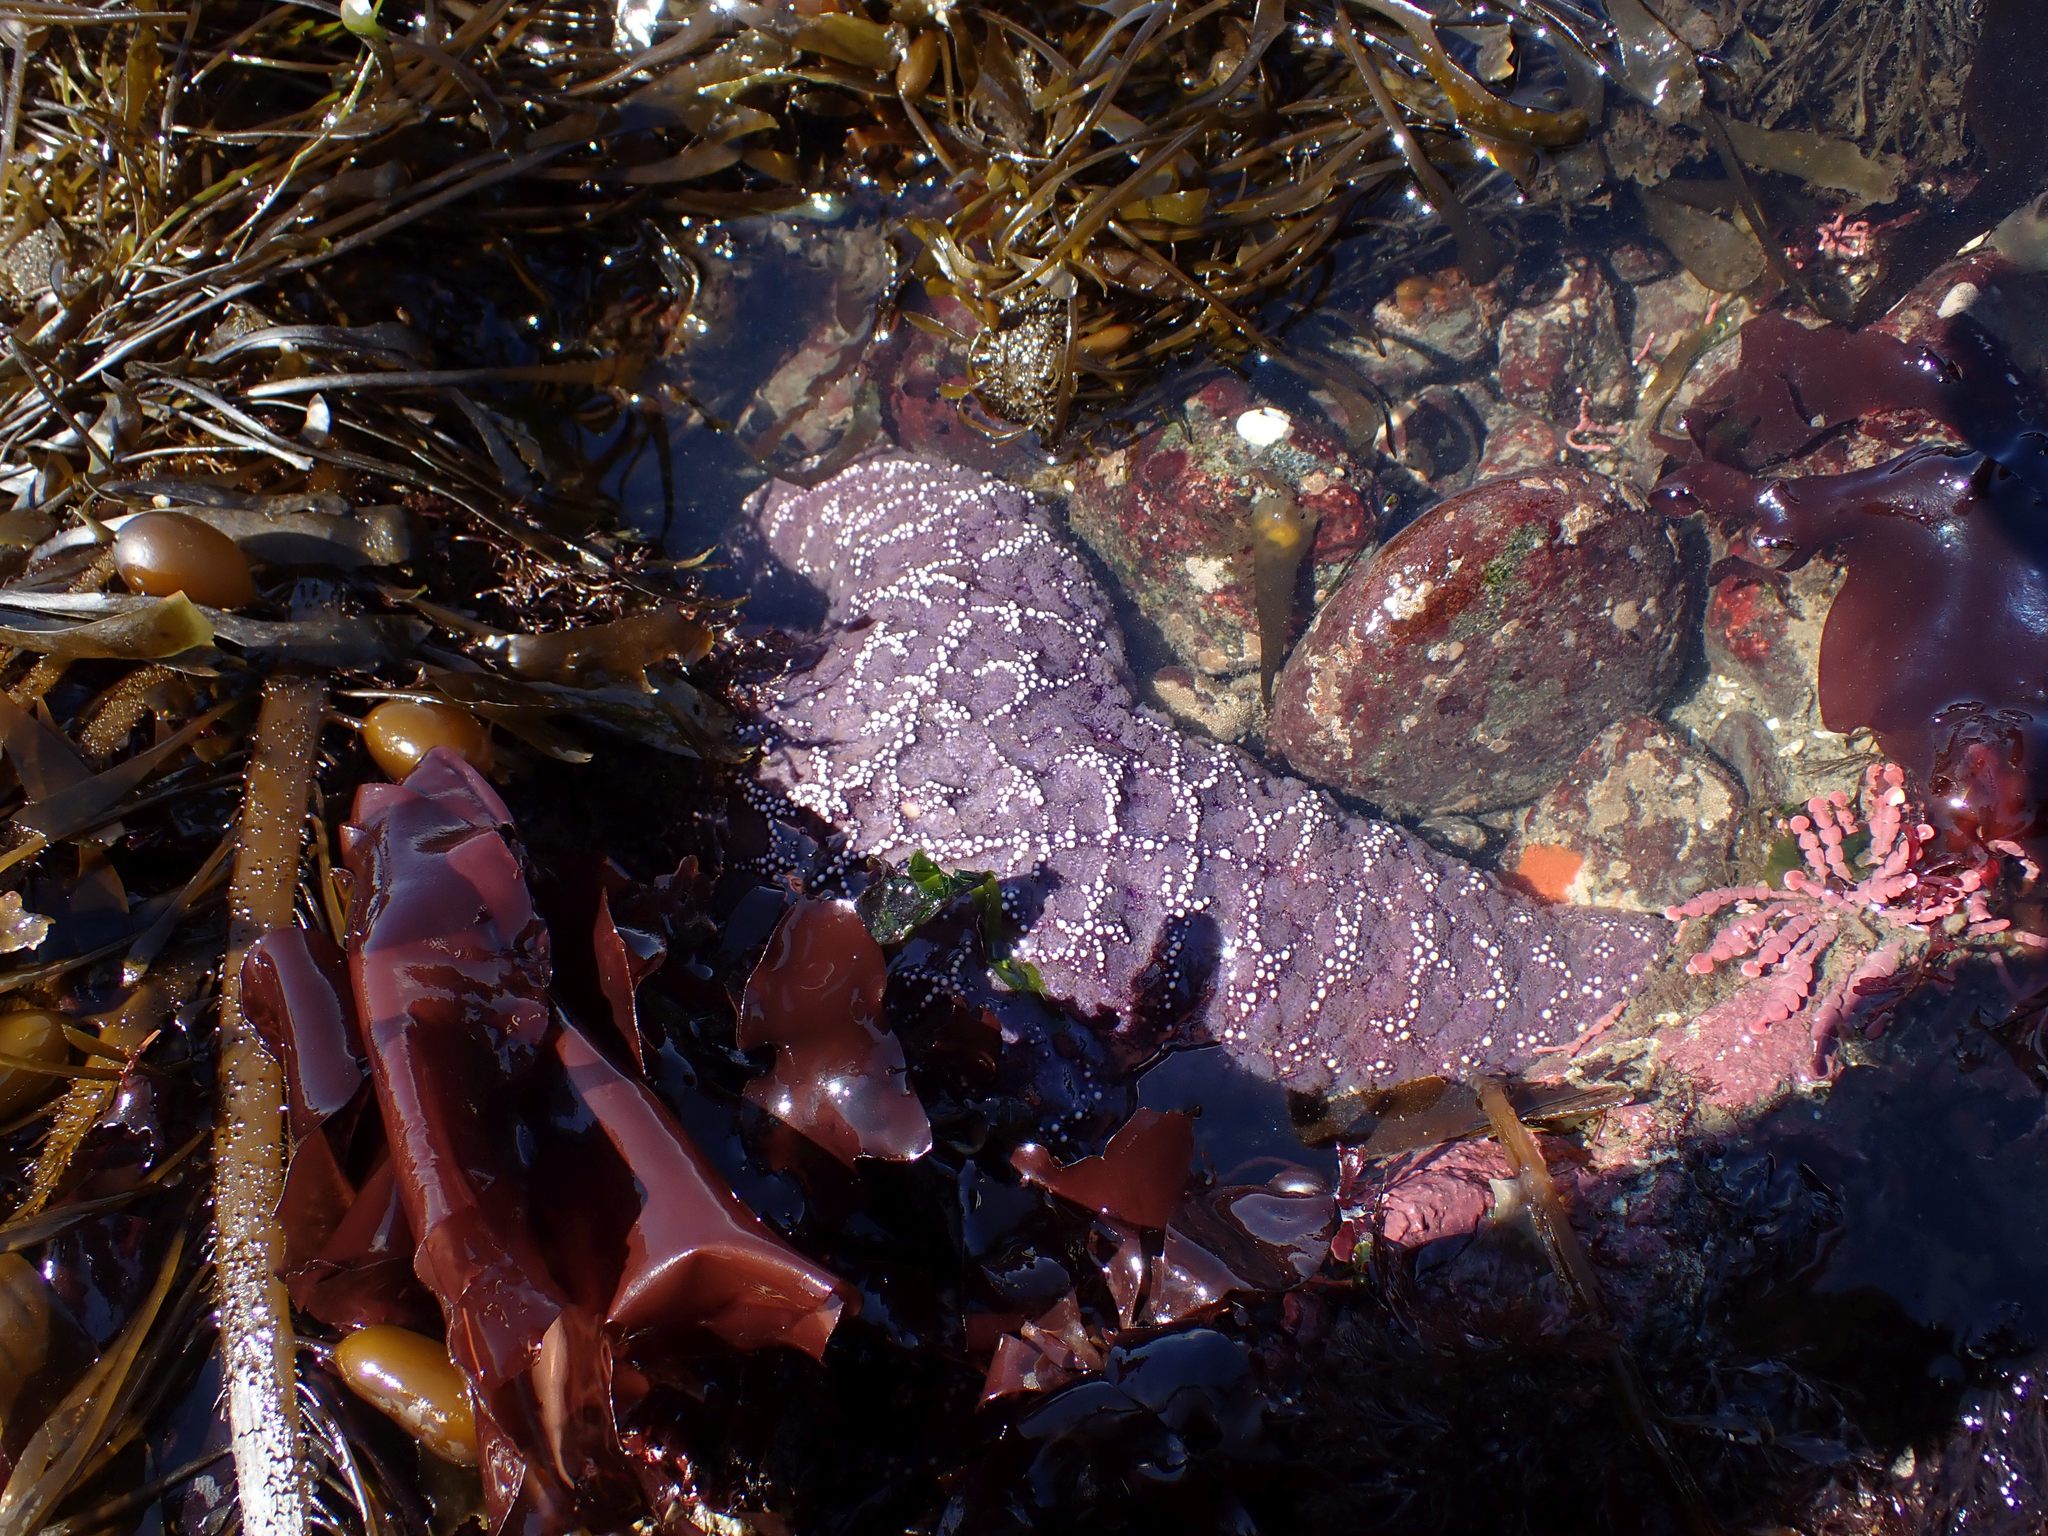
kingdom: Animalia
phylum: Echinodermata
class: Asteroidea
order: Forcipulatida
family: Asteriidae
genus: Pisaster
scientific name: Pisaster ochraceus
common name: Ochre stars
